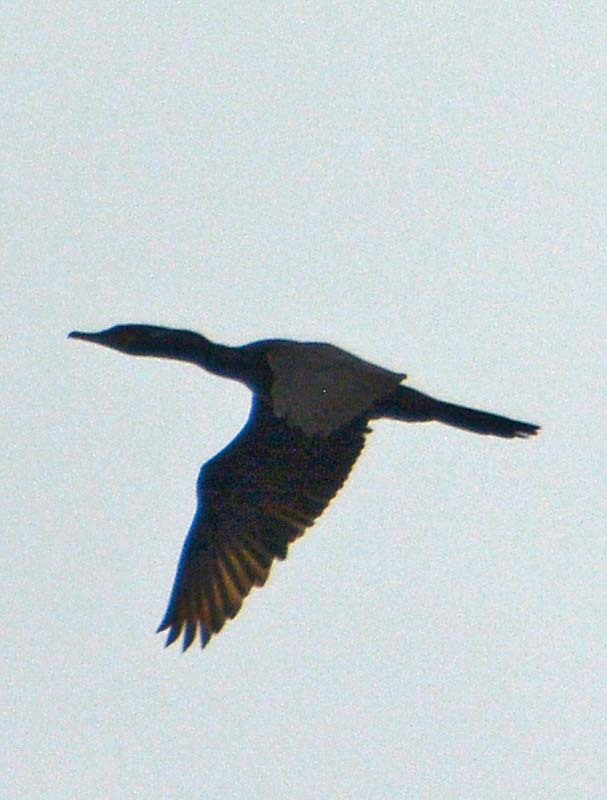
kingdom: Animalia
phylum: Chordata
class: Aves
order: Suliformes
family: Phalacrocoracidae
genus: Phalacrocorax
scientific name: Phalacrocorax brasilianus
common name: Neotropic cormorant
